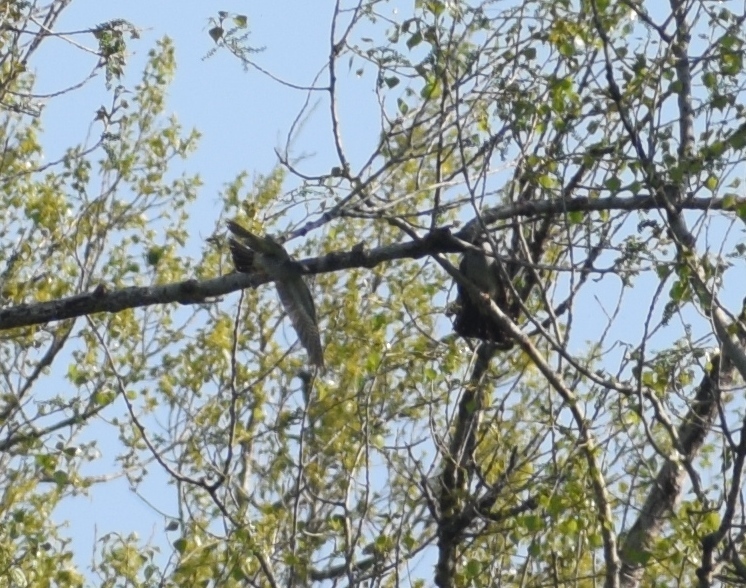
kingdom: Animalia
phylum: Chordata
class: Aves
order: Cuculiformes
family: Cuculidae
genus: Cuculus
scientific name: Cuculus canorus
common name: Common cuckoo
